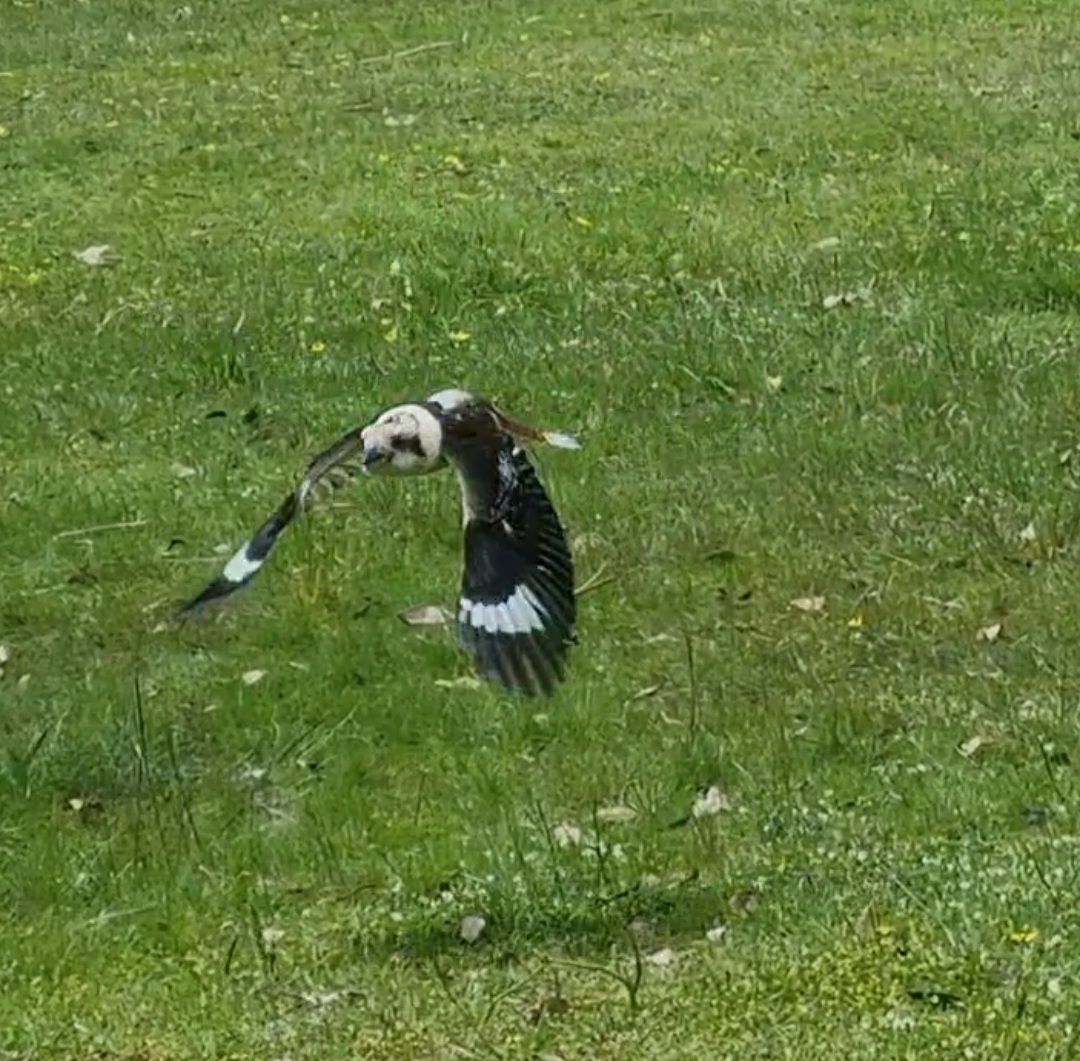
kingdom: Animalia
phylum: Chordata
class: Aves
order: Coraciiformes
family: Alcedinidae
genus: Dacelo
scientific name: Dacelo novaeguineae
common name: Laughing kookaburra
